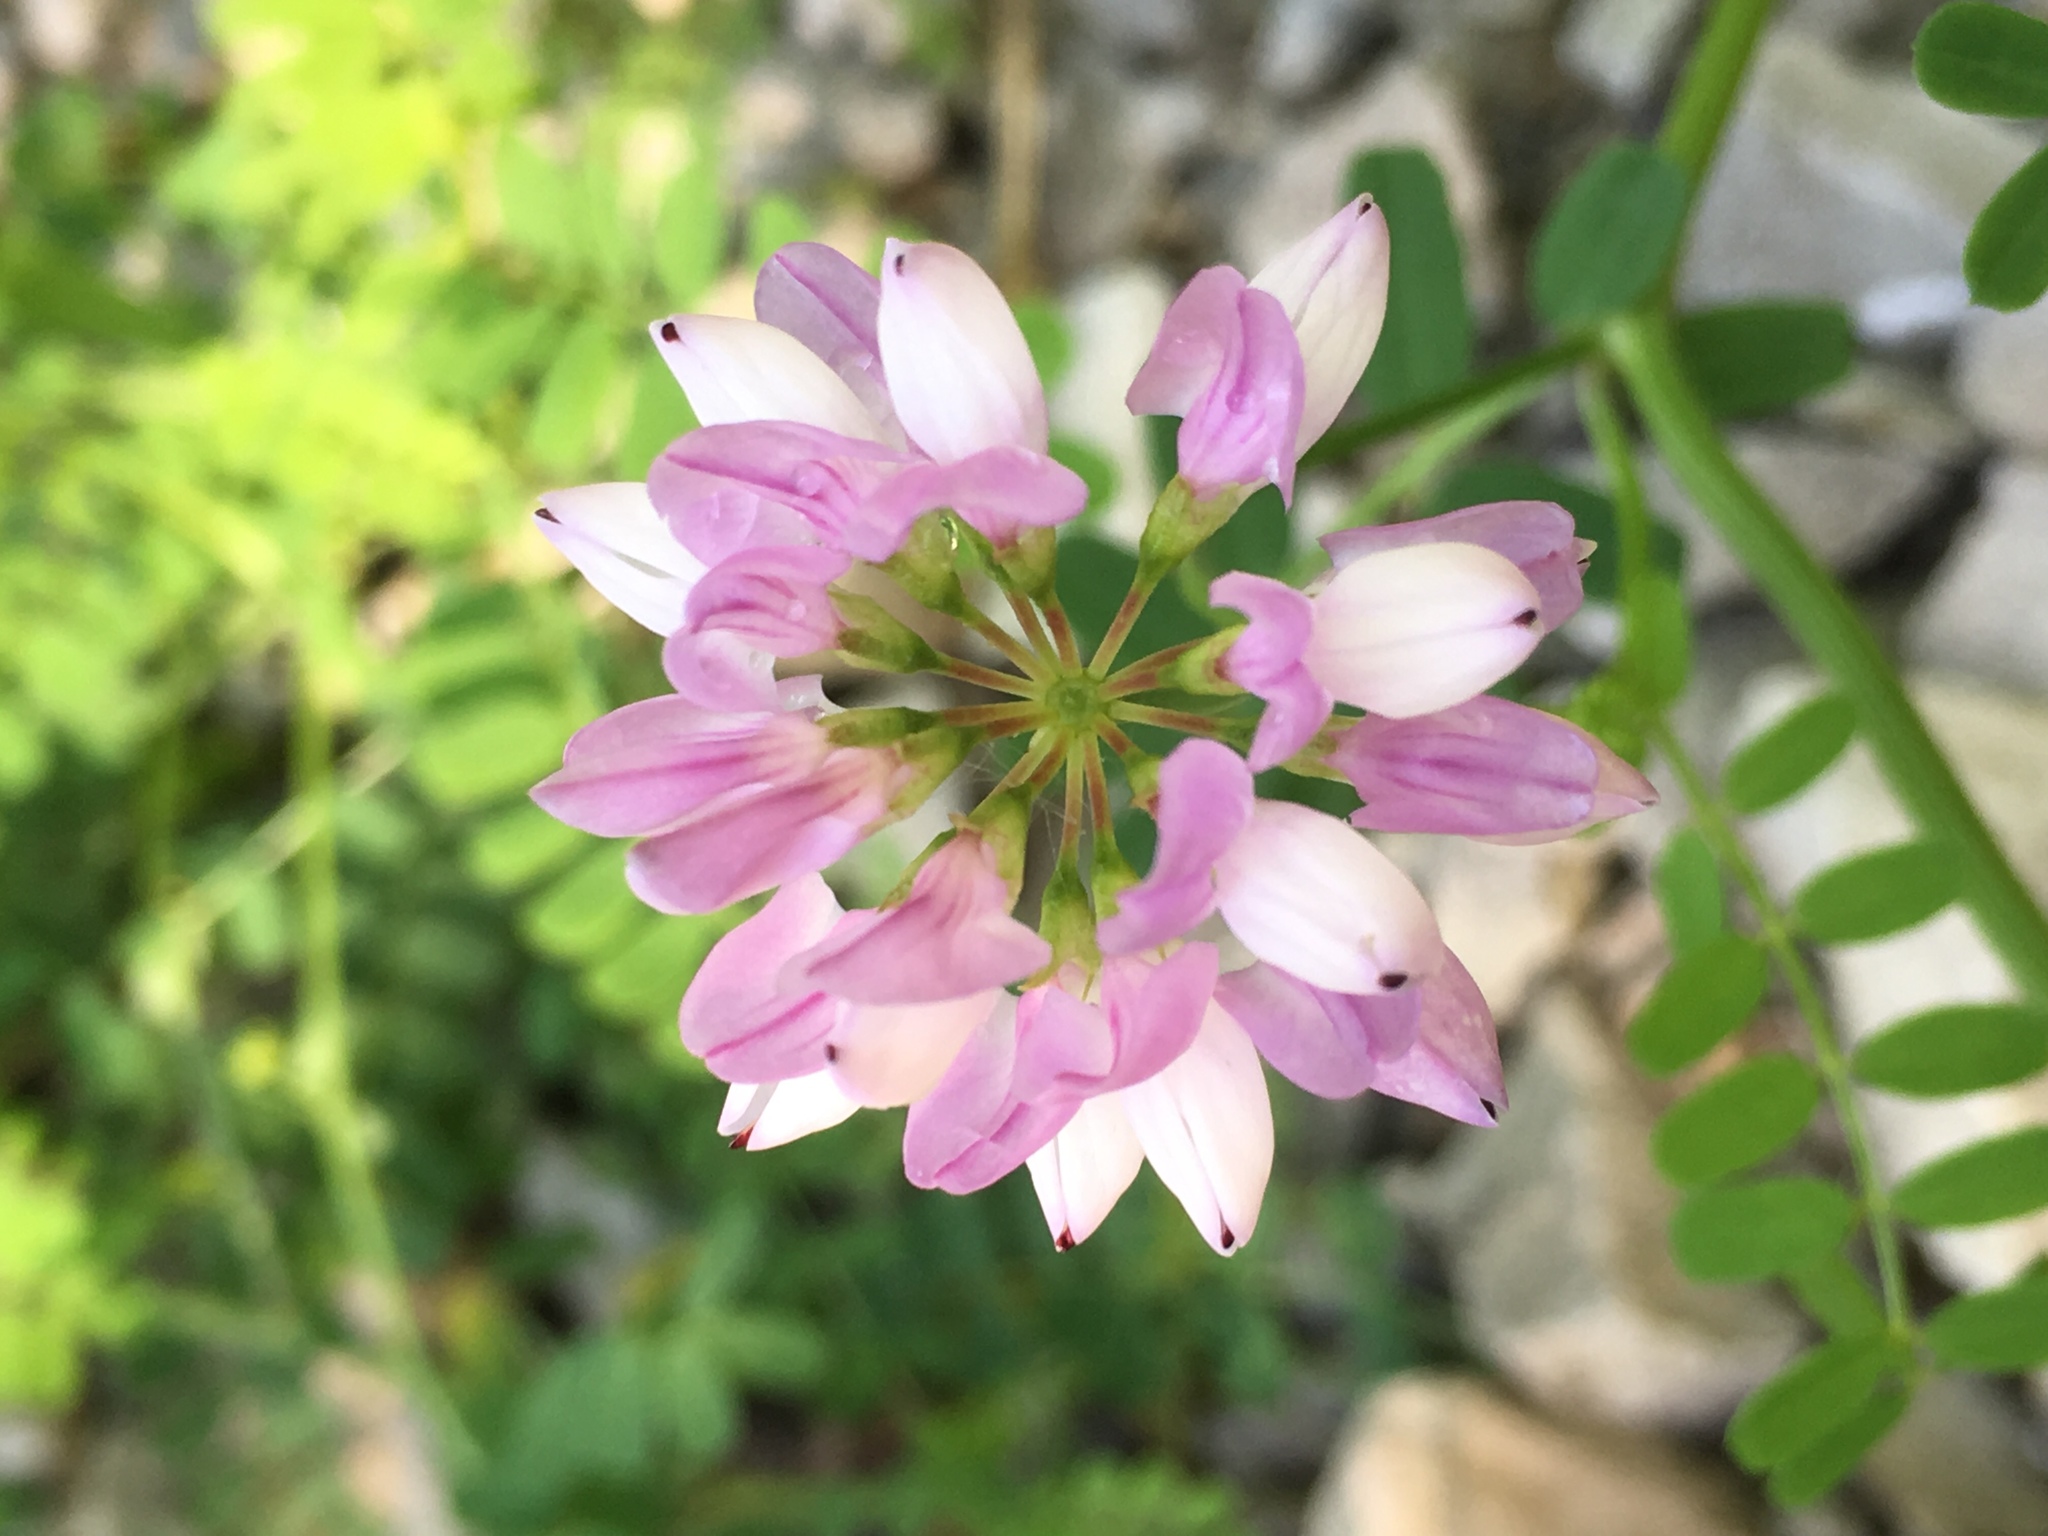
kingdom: Plantae
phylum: Tracheophyta
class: Magnoliopsida
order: Fabales
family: Fabaceae
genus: Coronilla
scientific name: Coronilla varia
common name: Crownvetch
